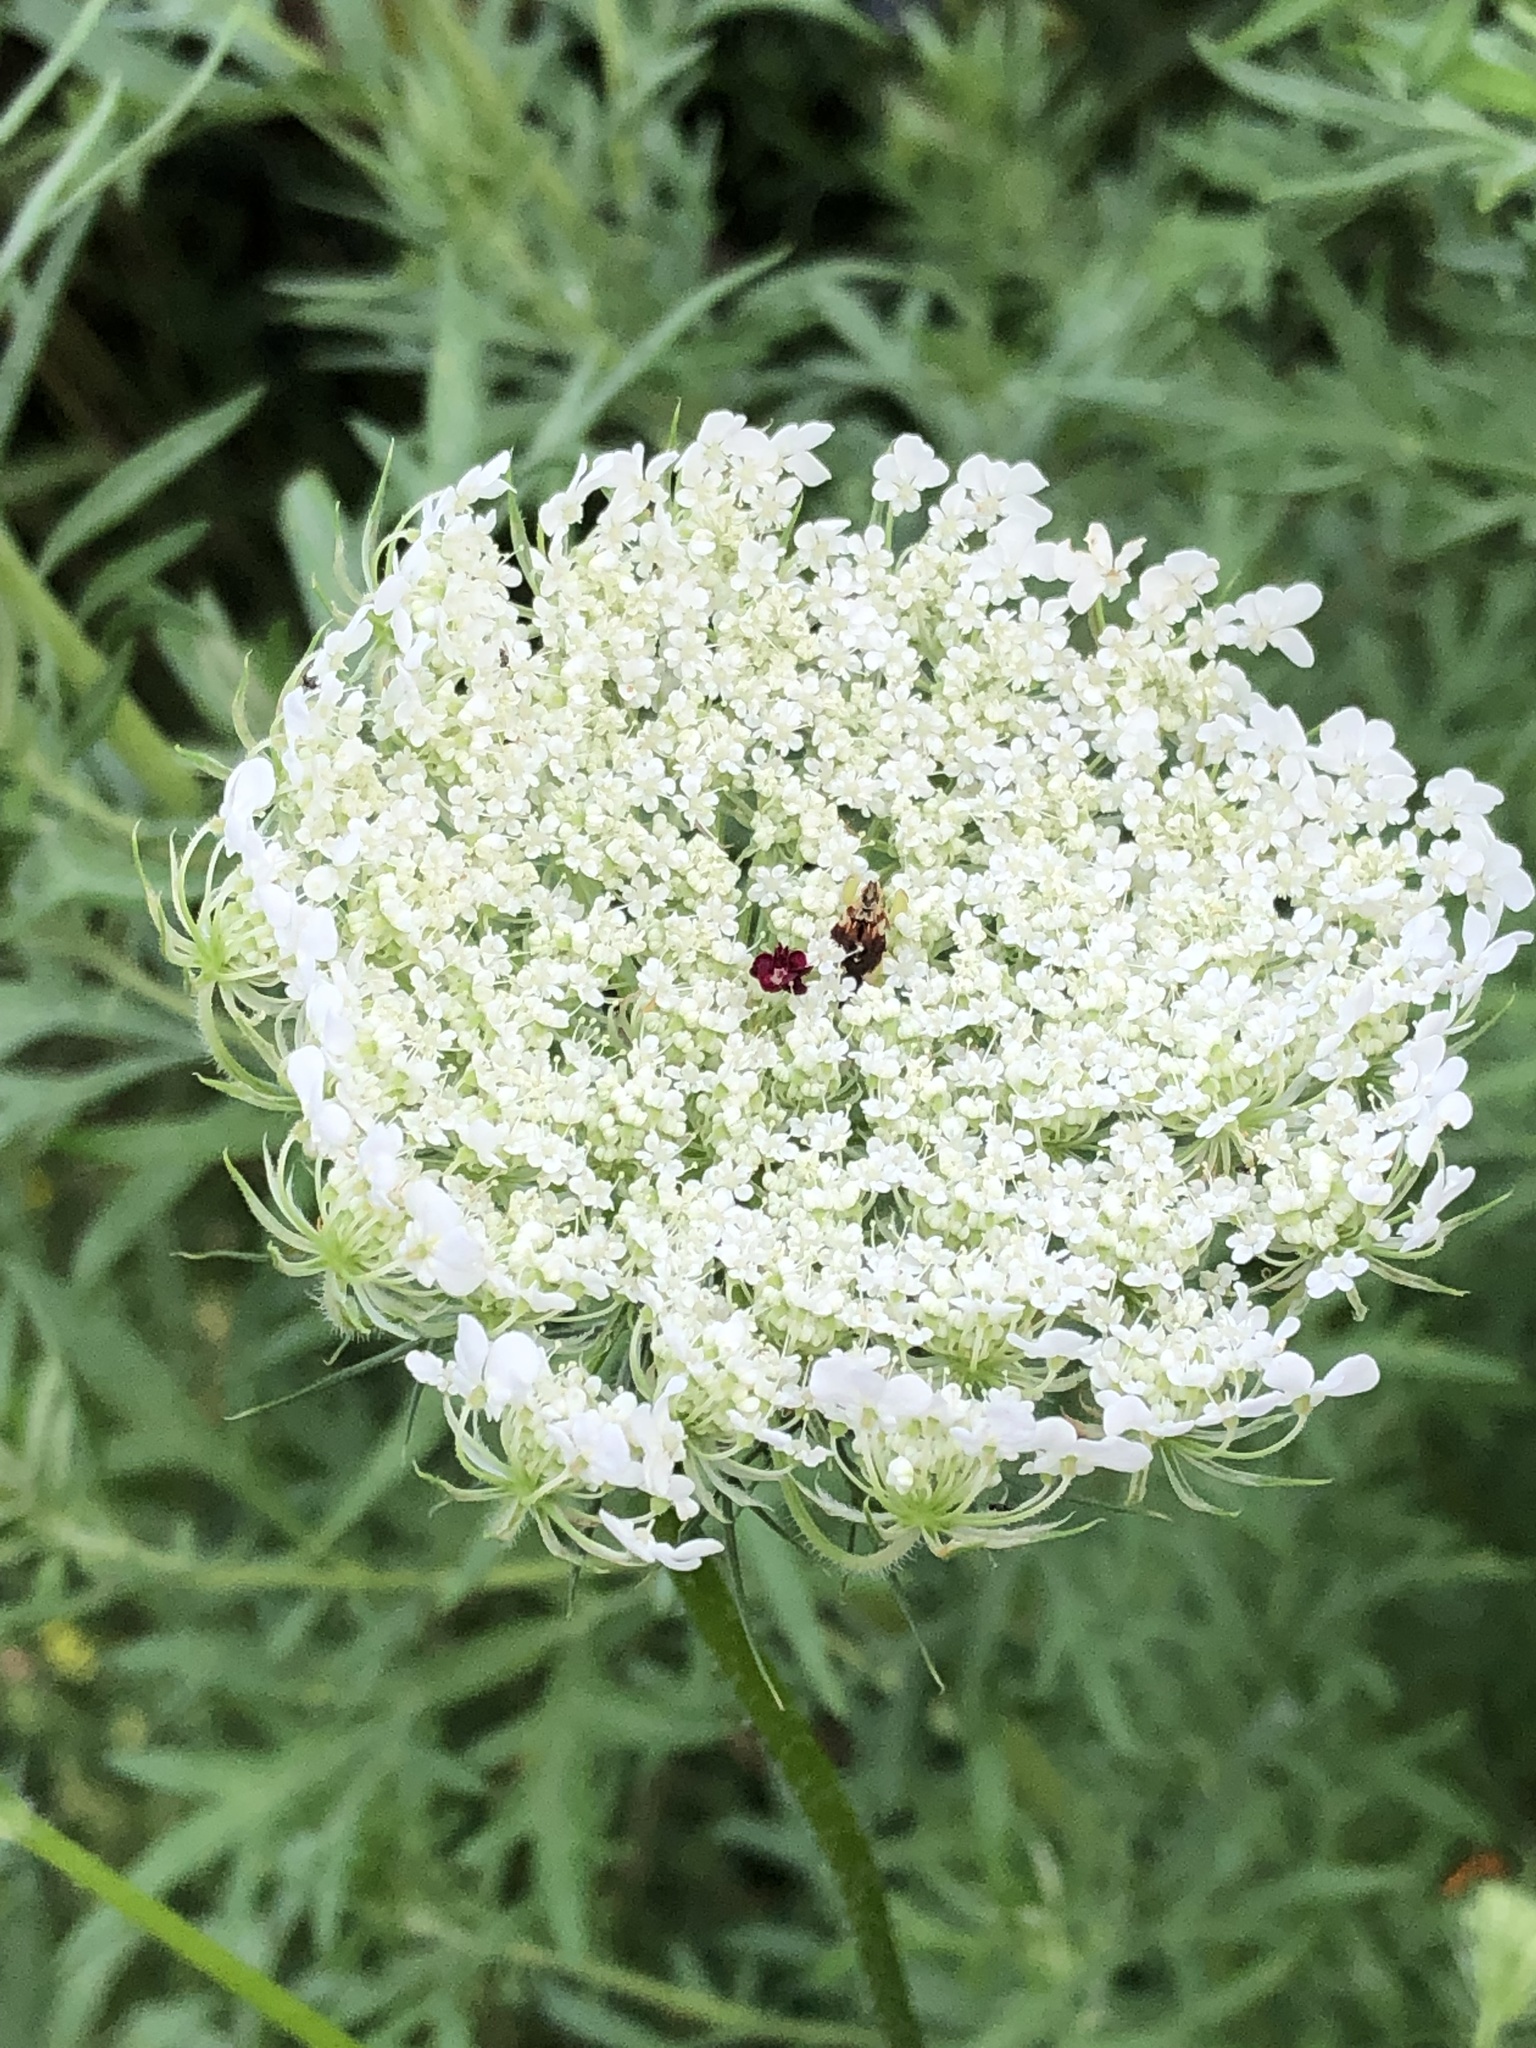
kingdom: Plantae
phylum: Tracheophyta
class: Magnoliopsida
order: Apiales
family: Apiaceae
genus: Daucus
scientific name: Daucus carota
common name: Wild carrot
